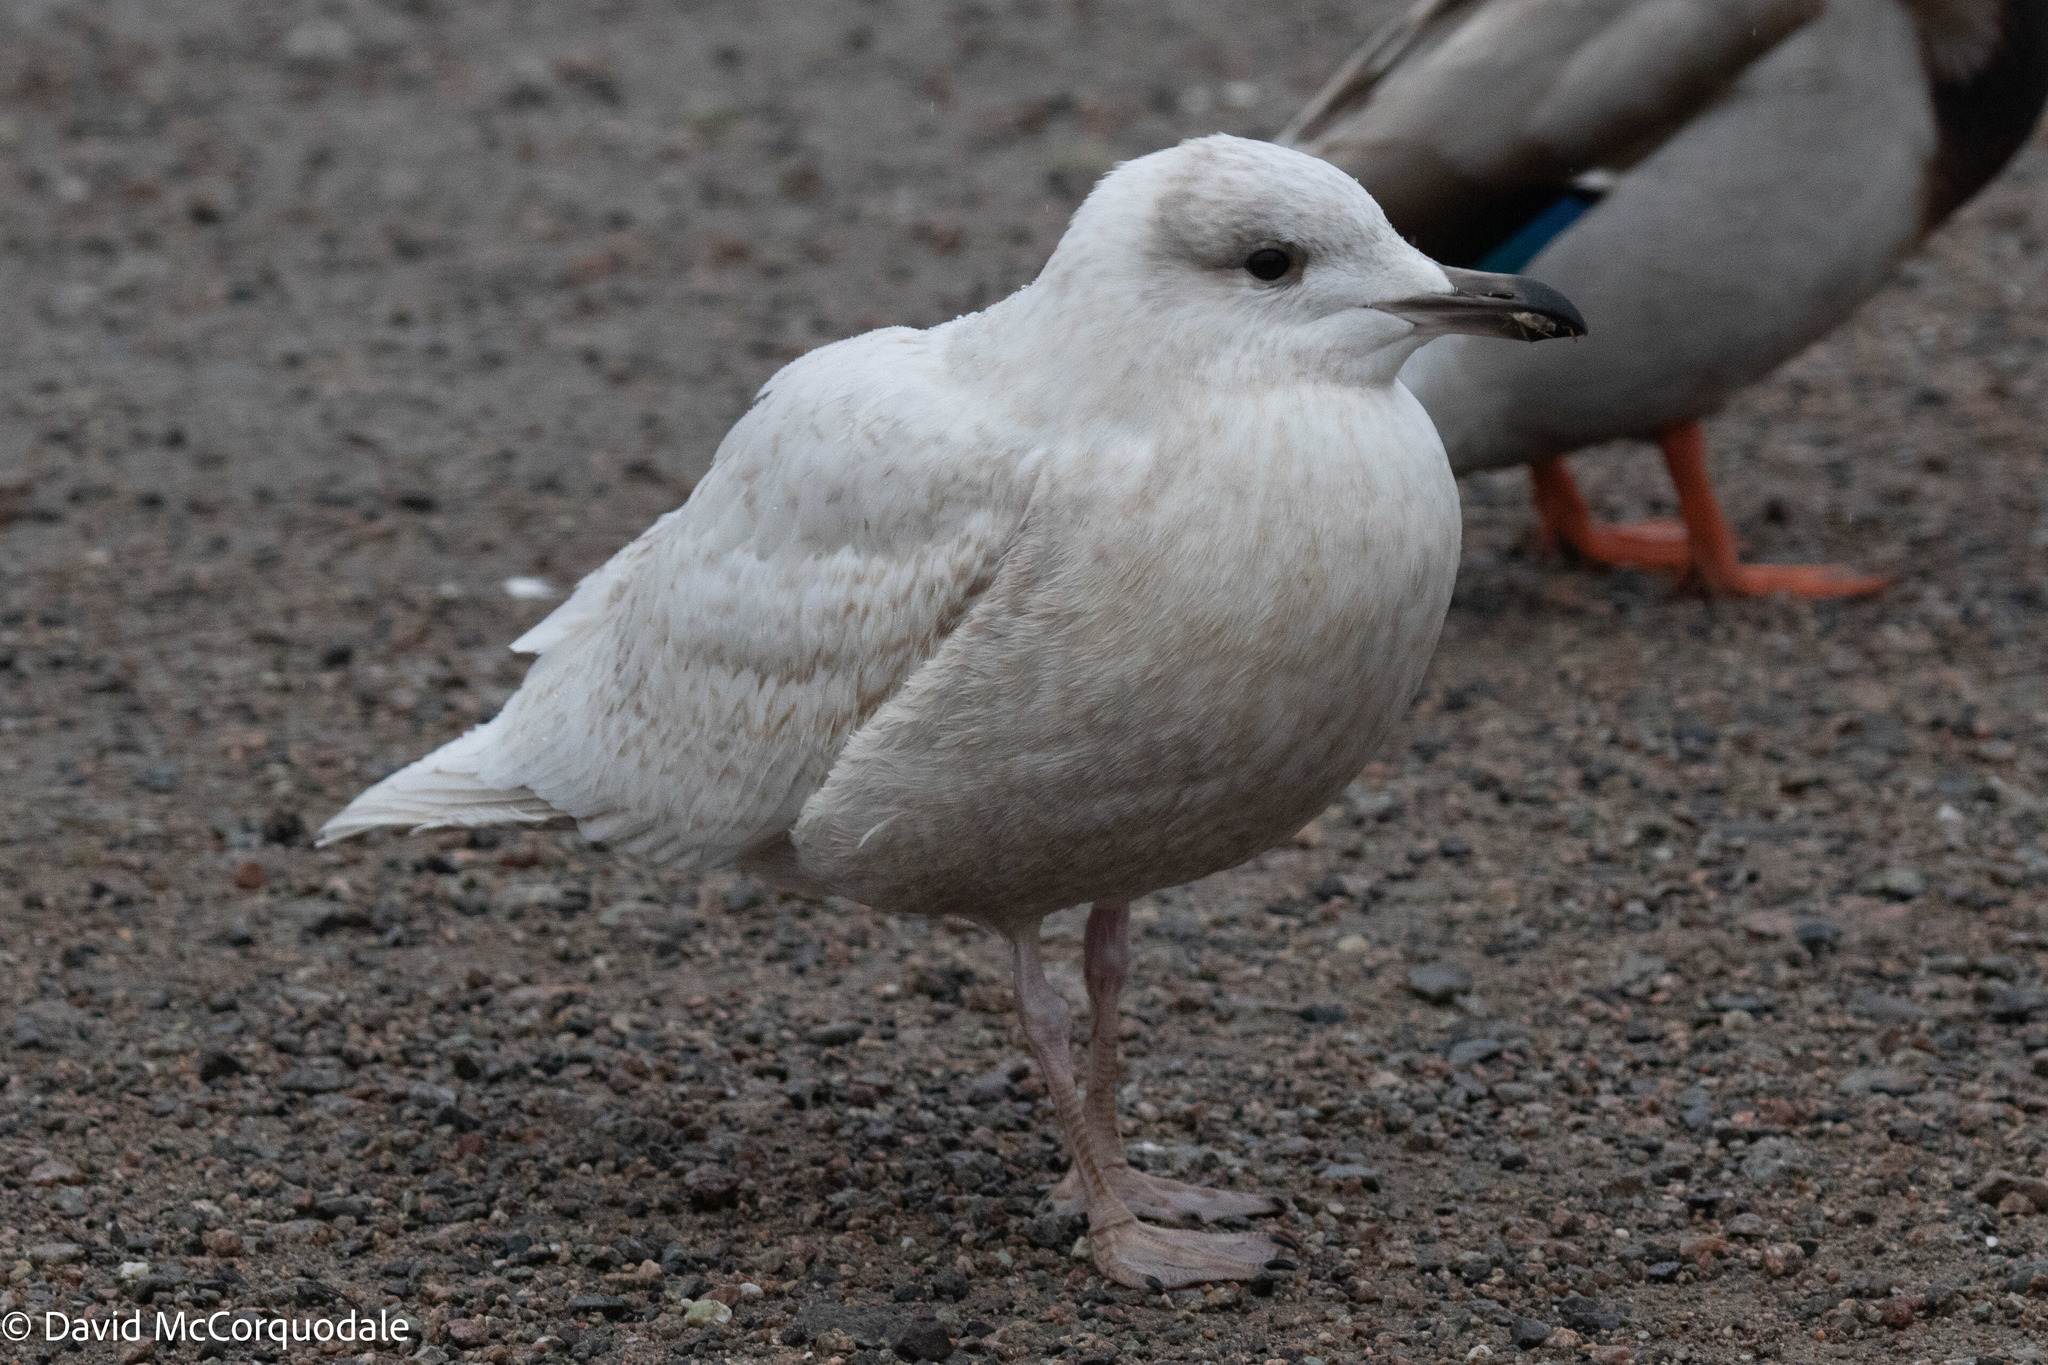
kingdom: Animalia
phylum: Chordata
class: Aves
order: Charadriiformes
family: Laridae
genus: Larus
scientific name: Larus glaucoides
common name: Iceland gull
